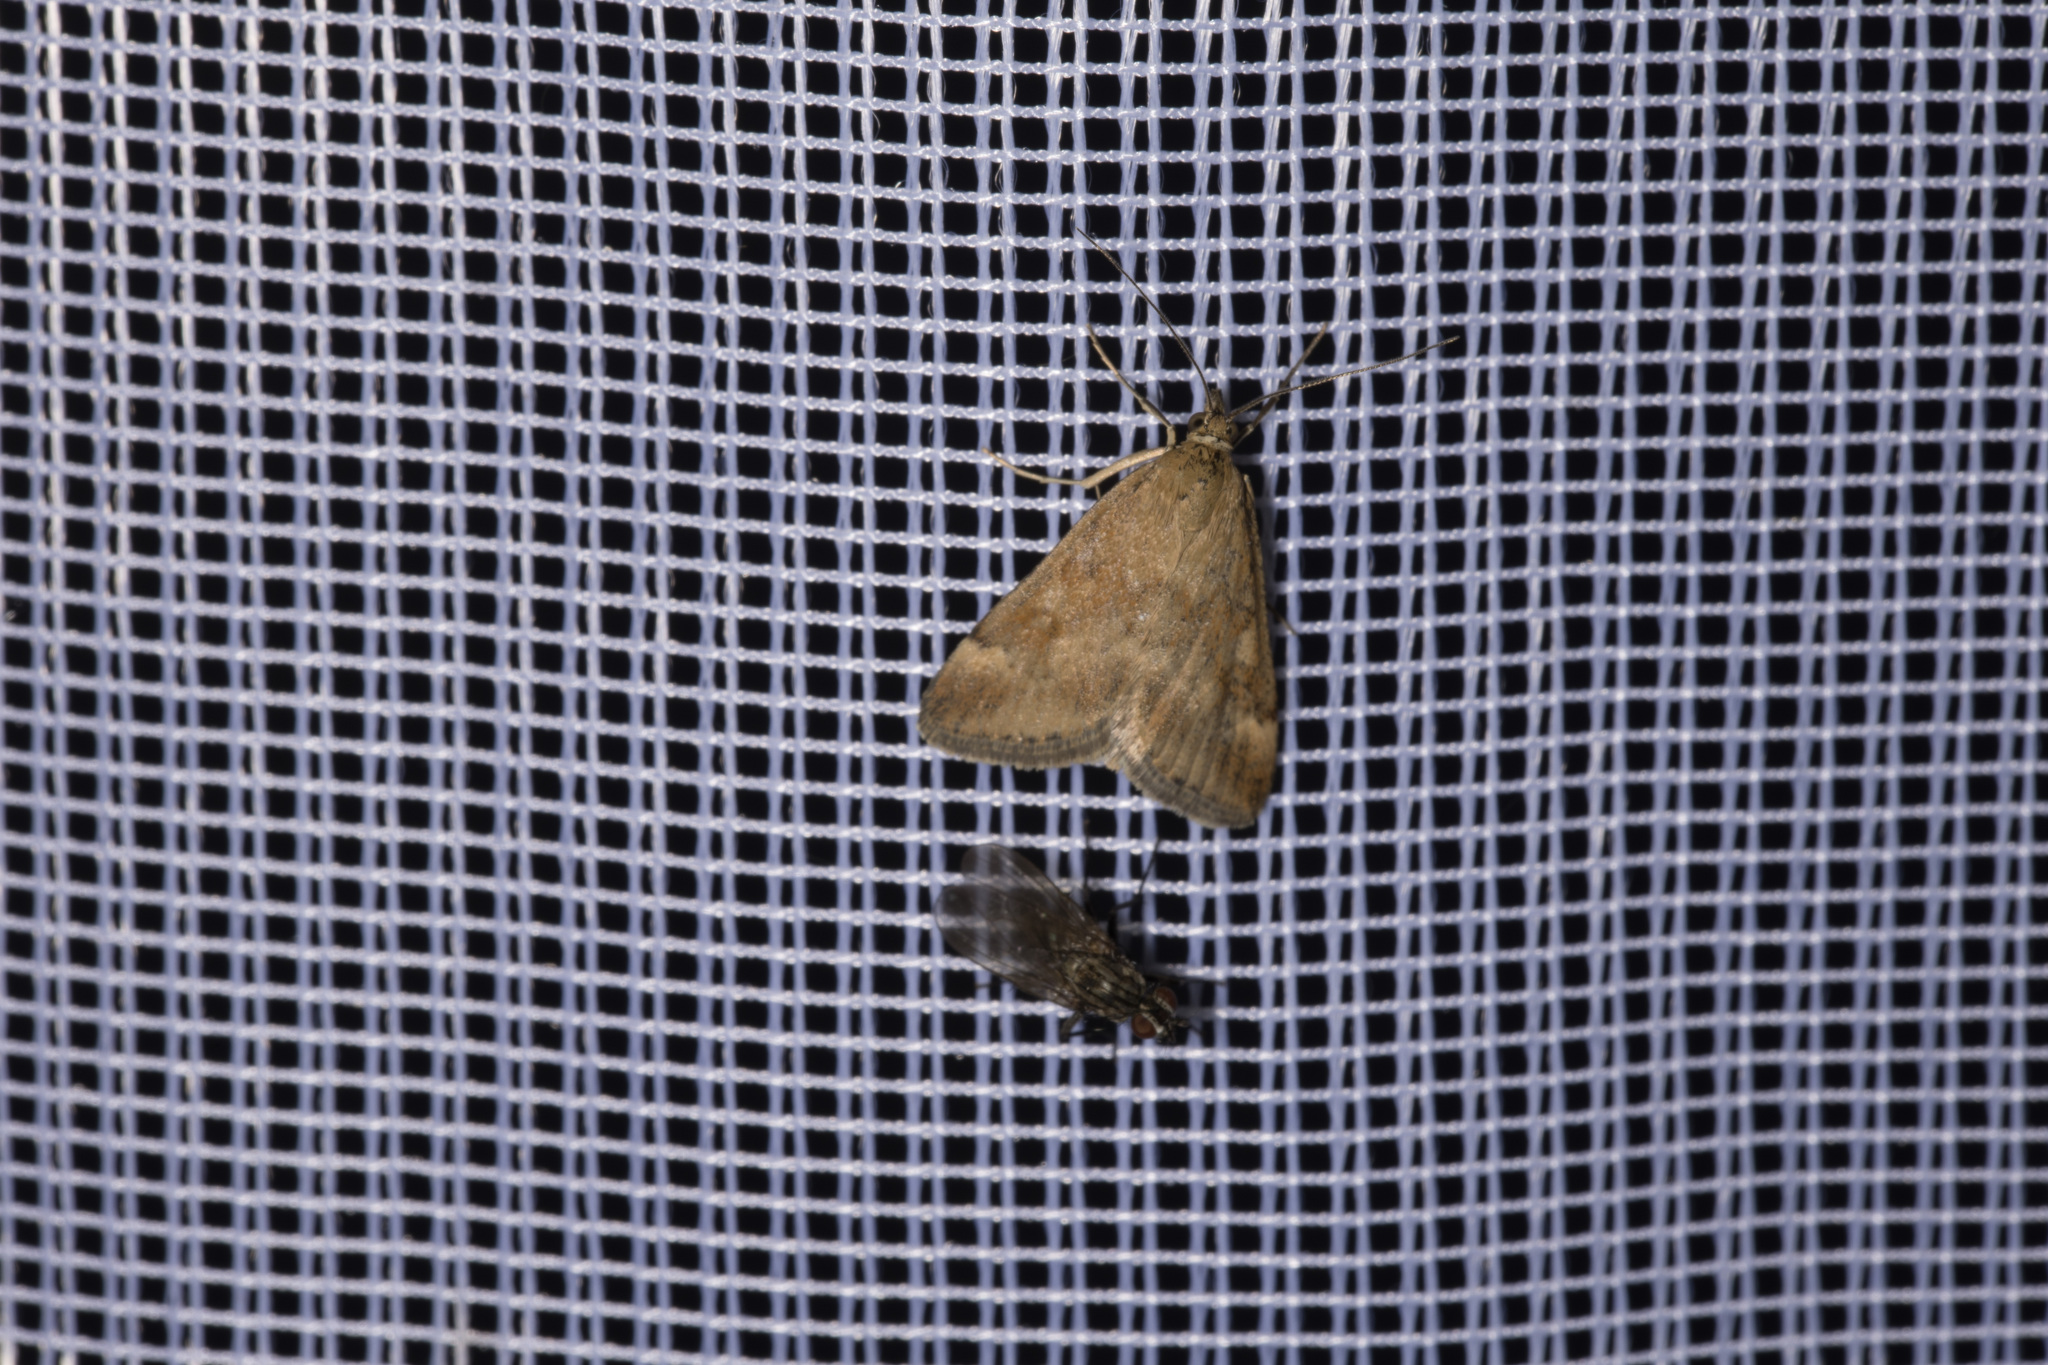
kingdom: Animalia
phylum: Arthropoda
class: Insecta
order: Lepidoptera
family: Crambidae
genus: Pyrausta
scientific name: Pyrausta despicata
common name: Straw-barred pearl
